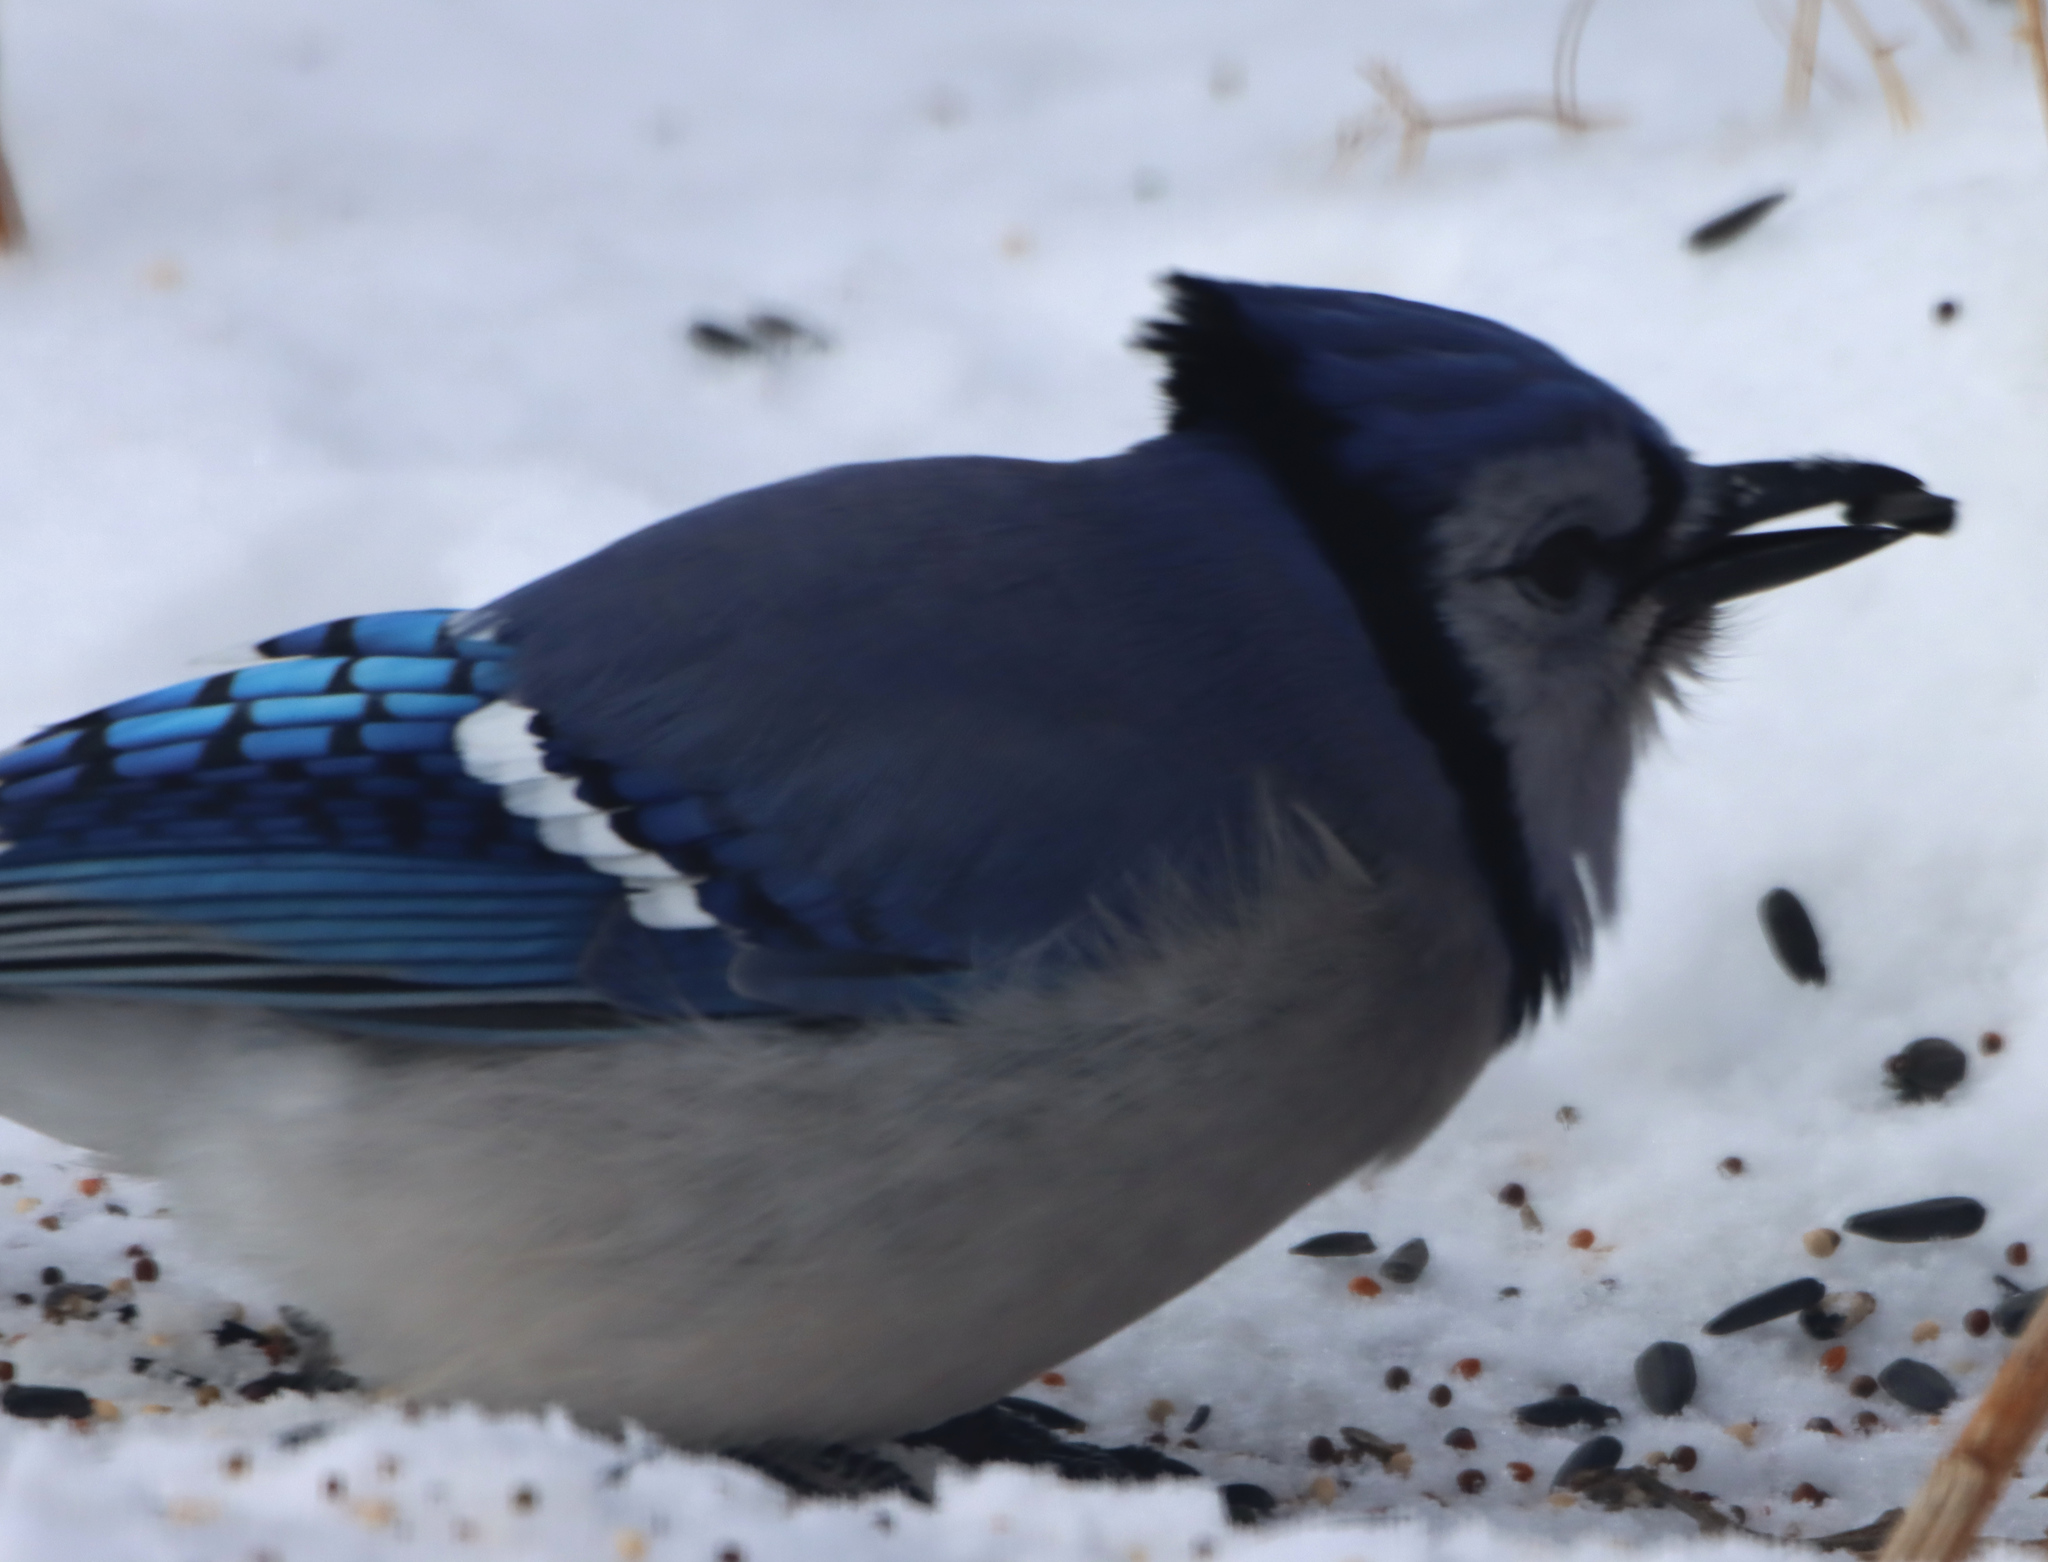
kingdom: Animalia
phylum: Chordata
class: Aves
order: Passeriformes
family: Corvidae
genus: Cyanocitta
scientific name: Cyanocitta cristata
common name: Blue jay
